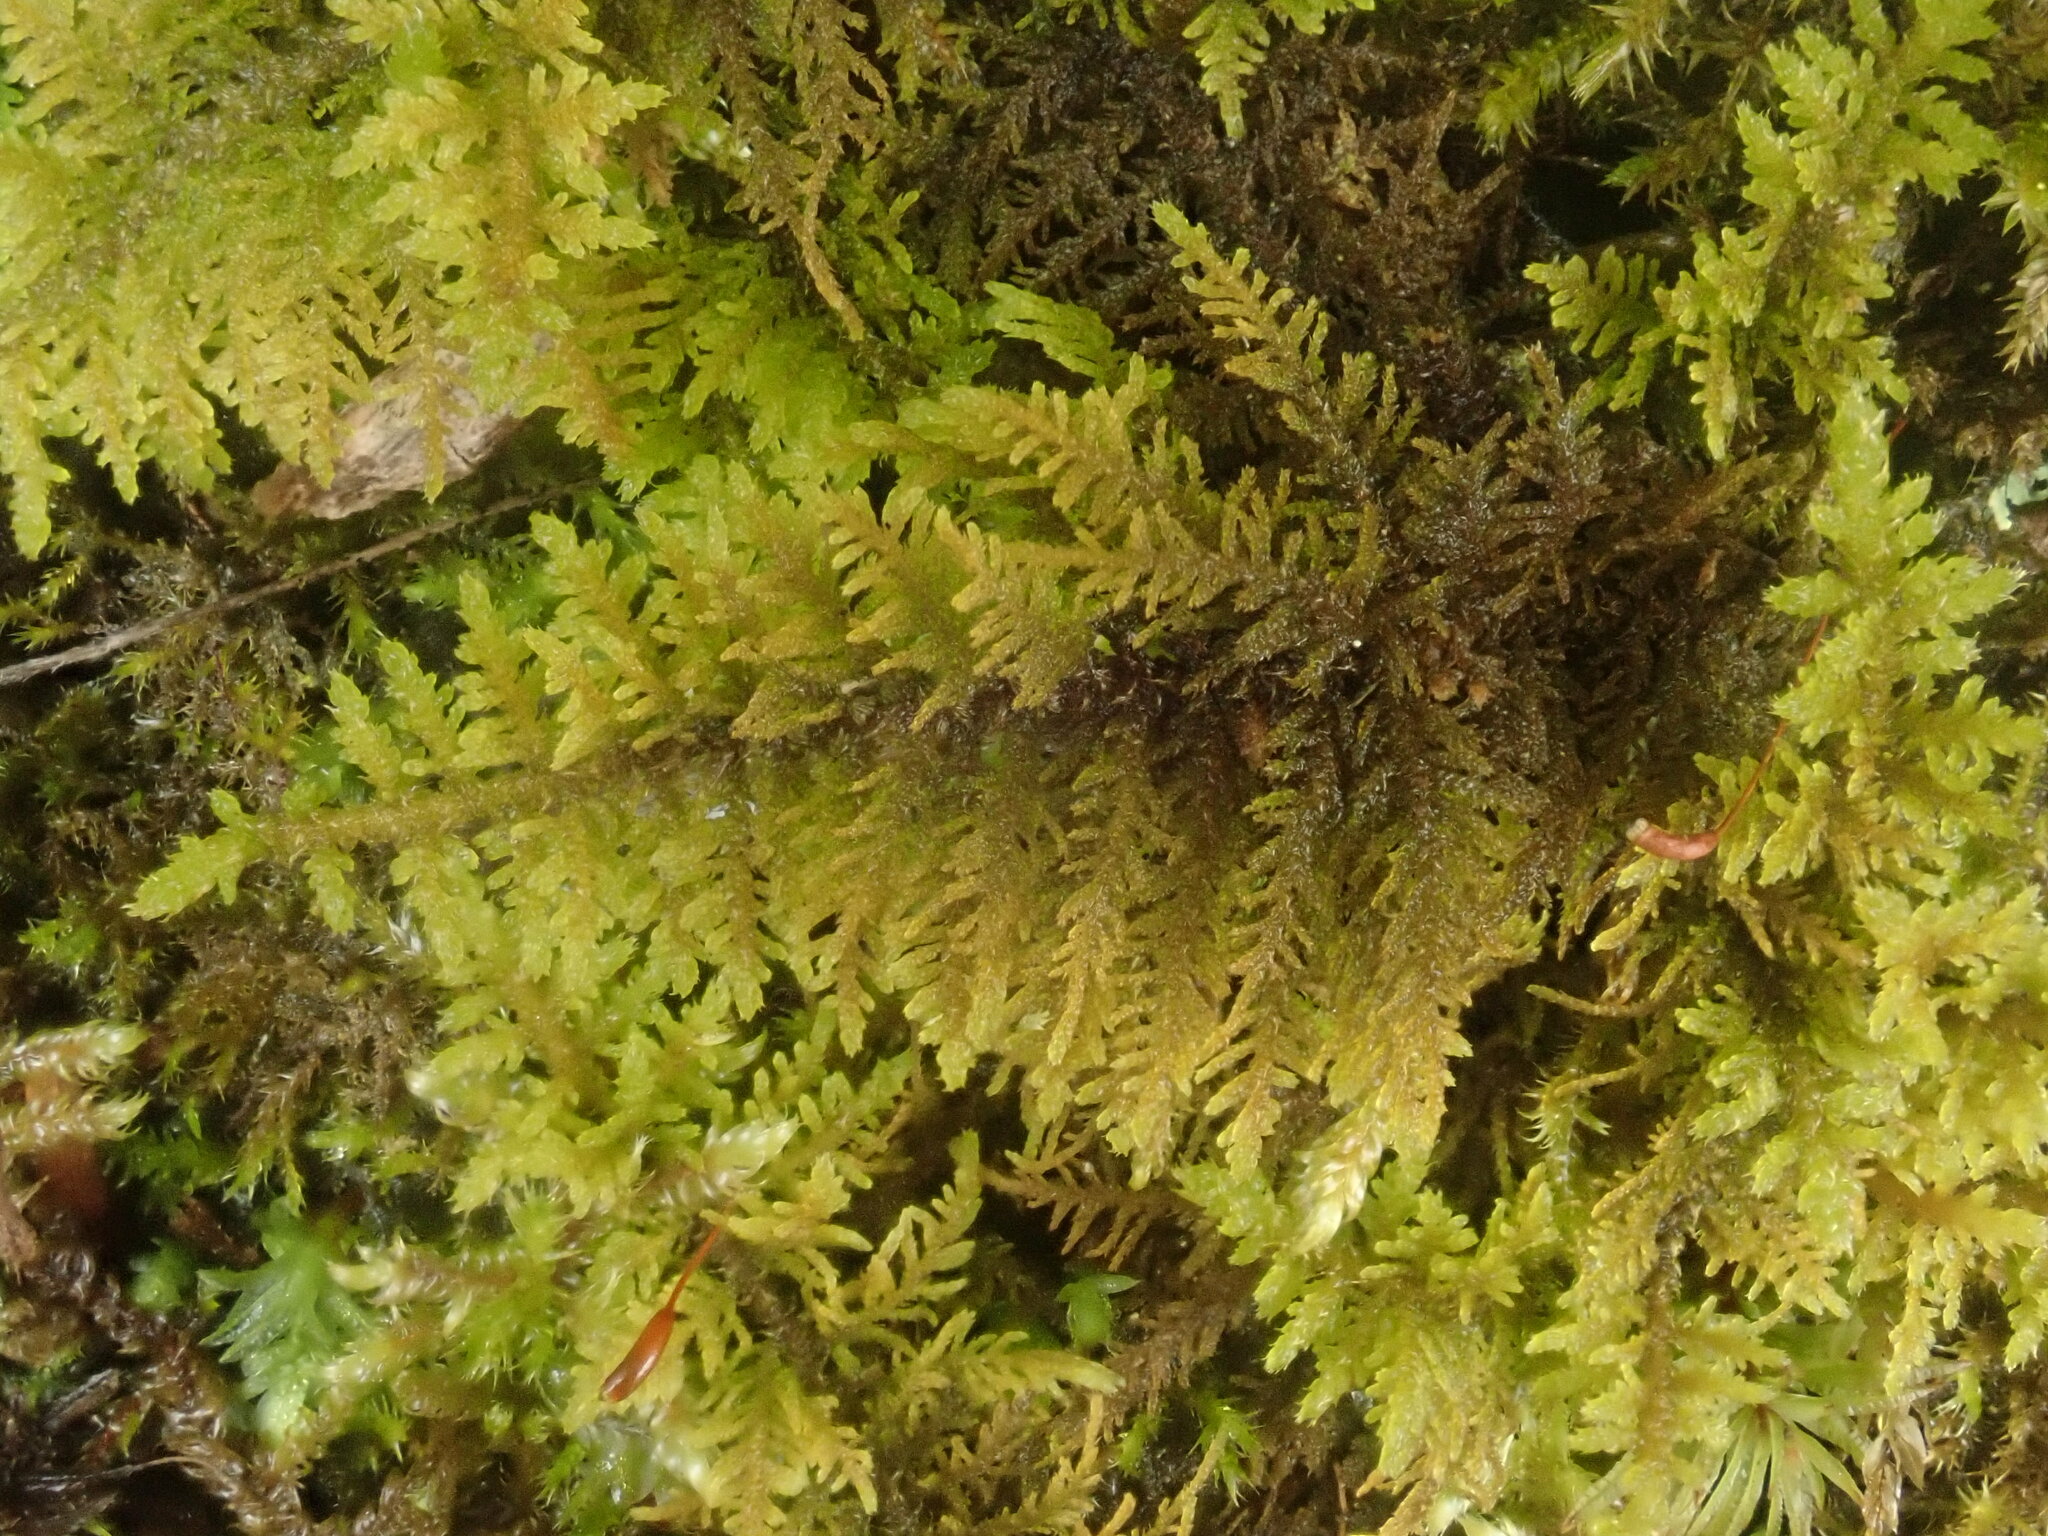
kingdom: Plantae
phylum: Bryophyta
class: Bryopsida
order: Hypnales
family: Thuidiaceae
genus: Thuidium
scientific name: Thuidium delicatulum
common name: Delicate fern moss
